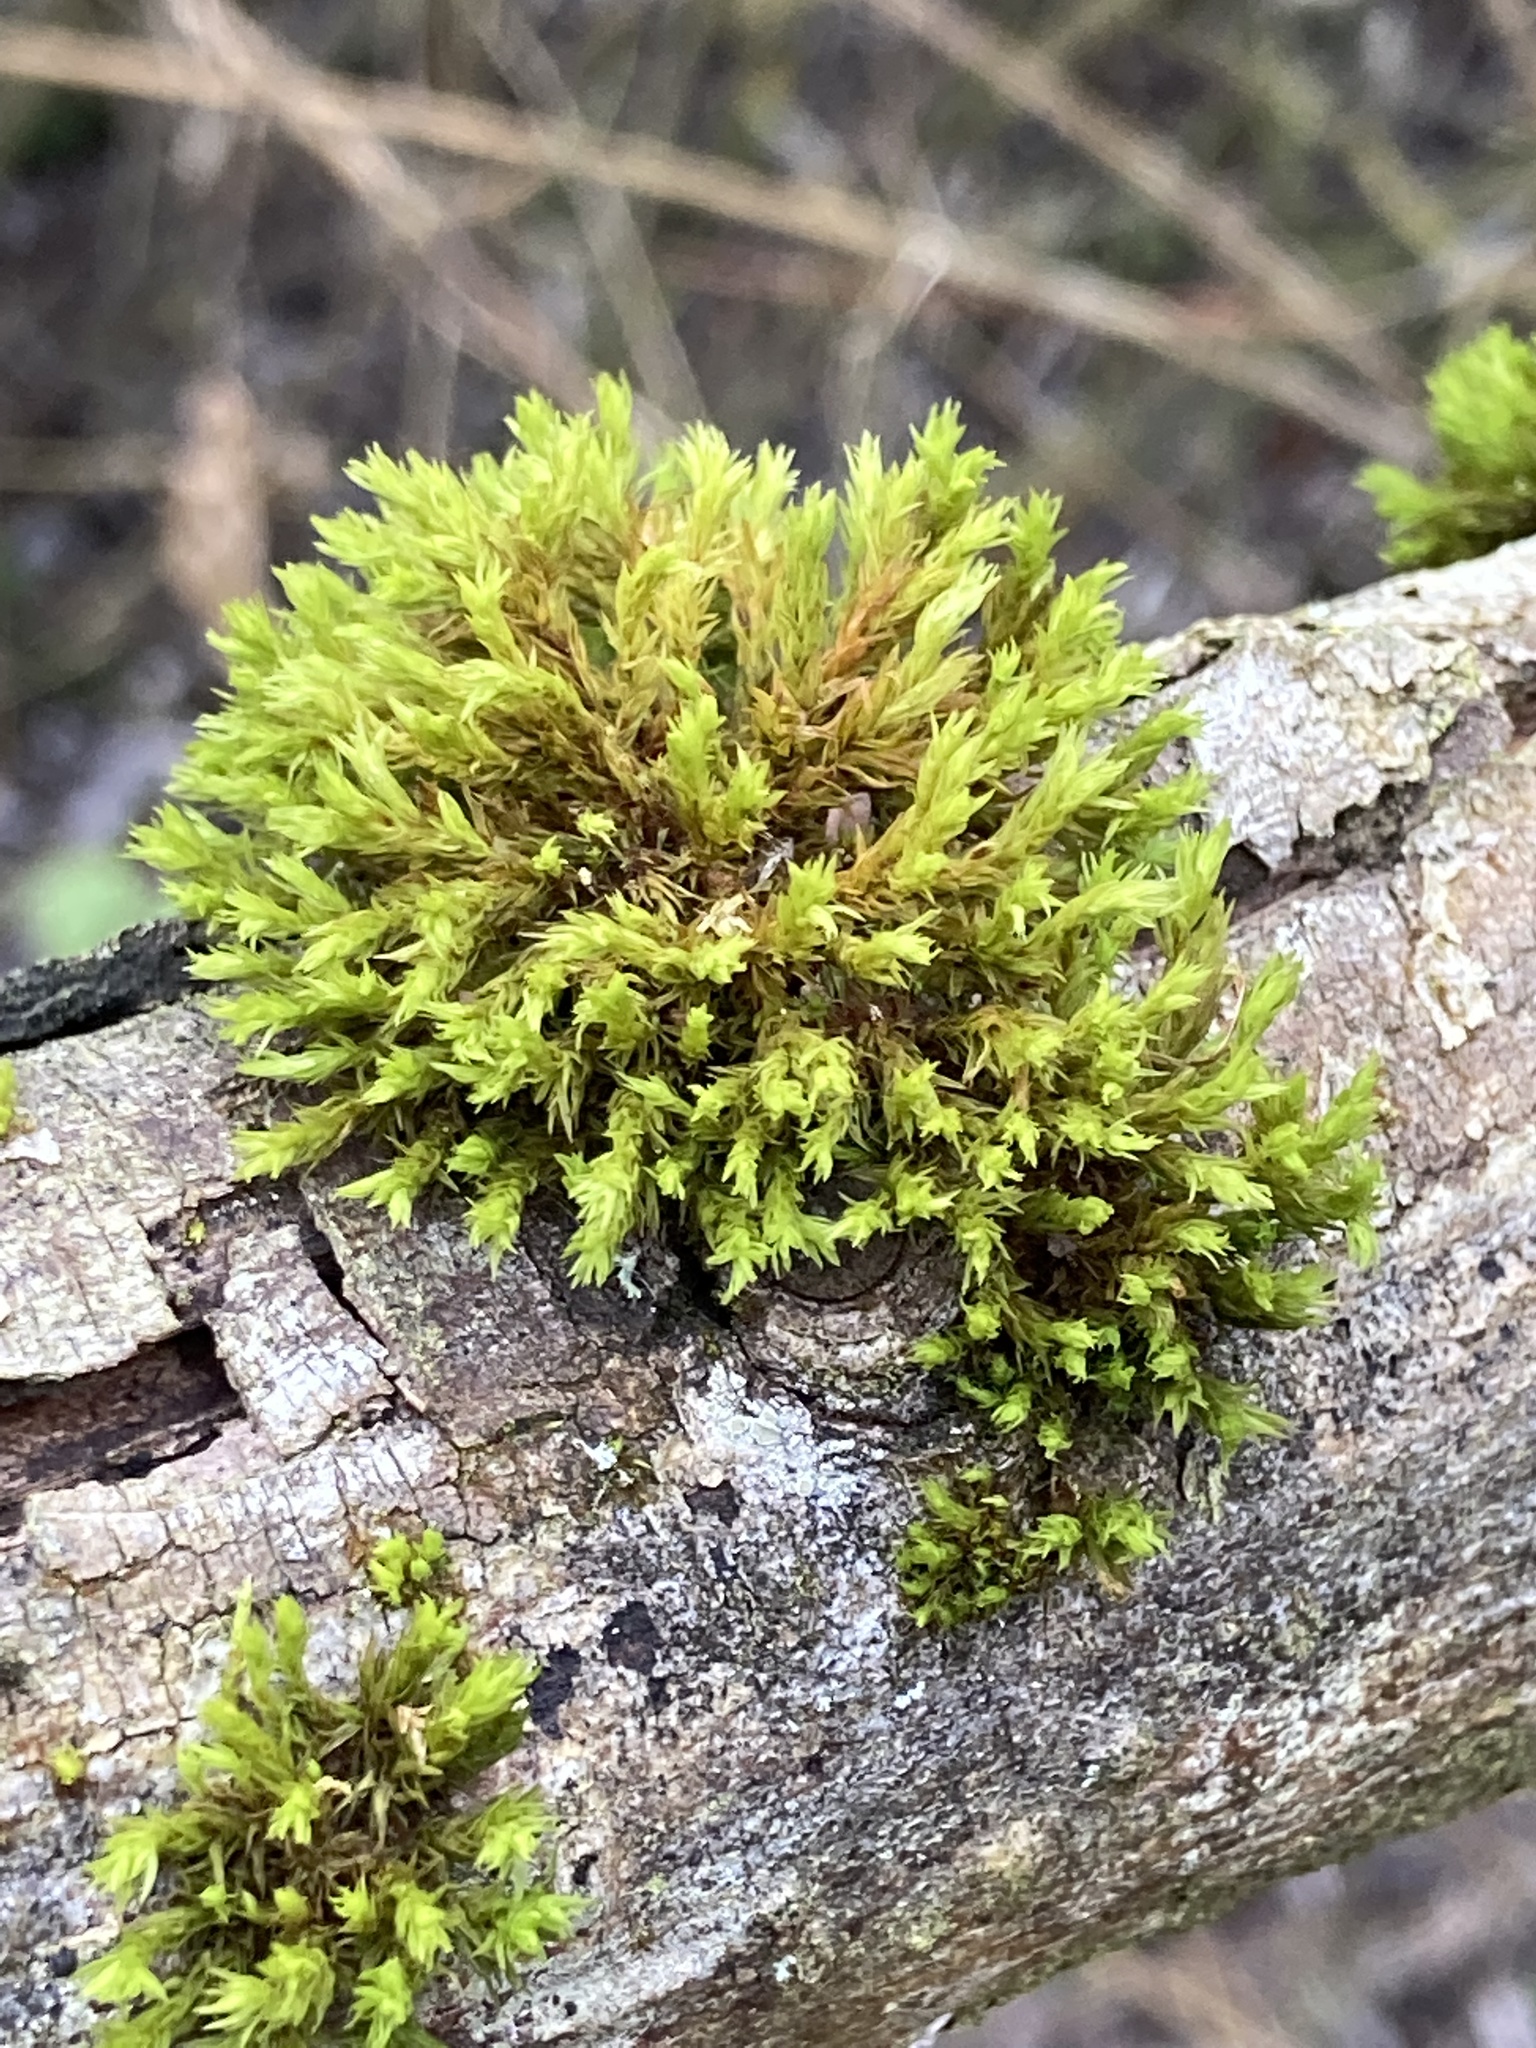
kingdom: Plantae
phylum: Bryophyta
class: Bryopsida
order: Orthotrichales
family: Orthotrichaceae
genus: Lewinskya
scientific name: Lewinskya affinis
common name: Wood bristle-moss
